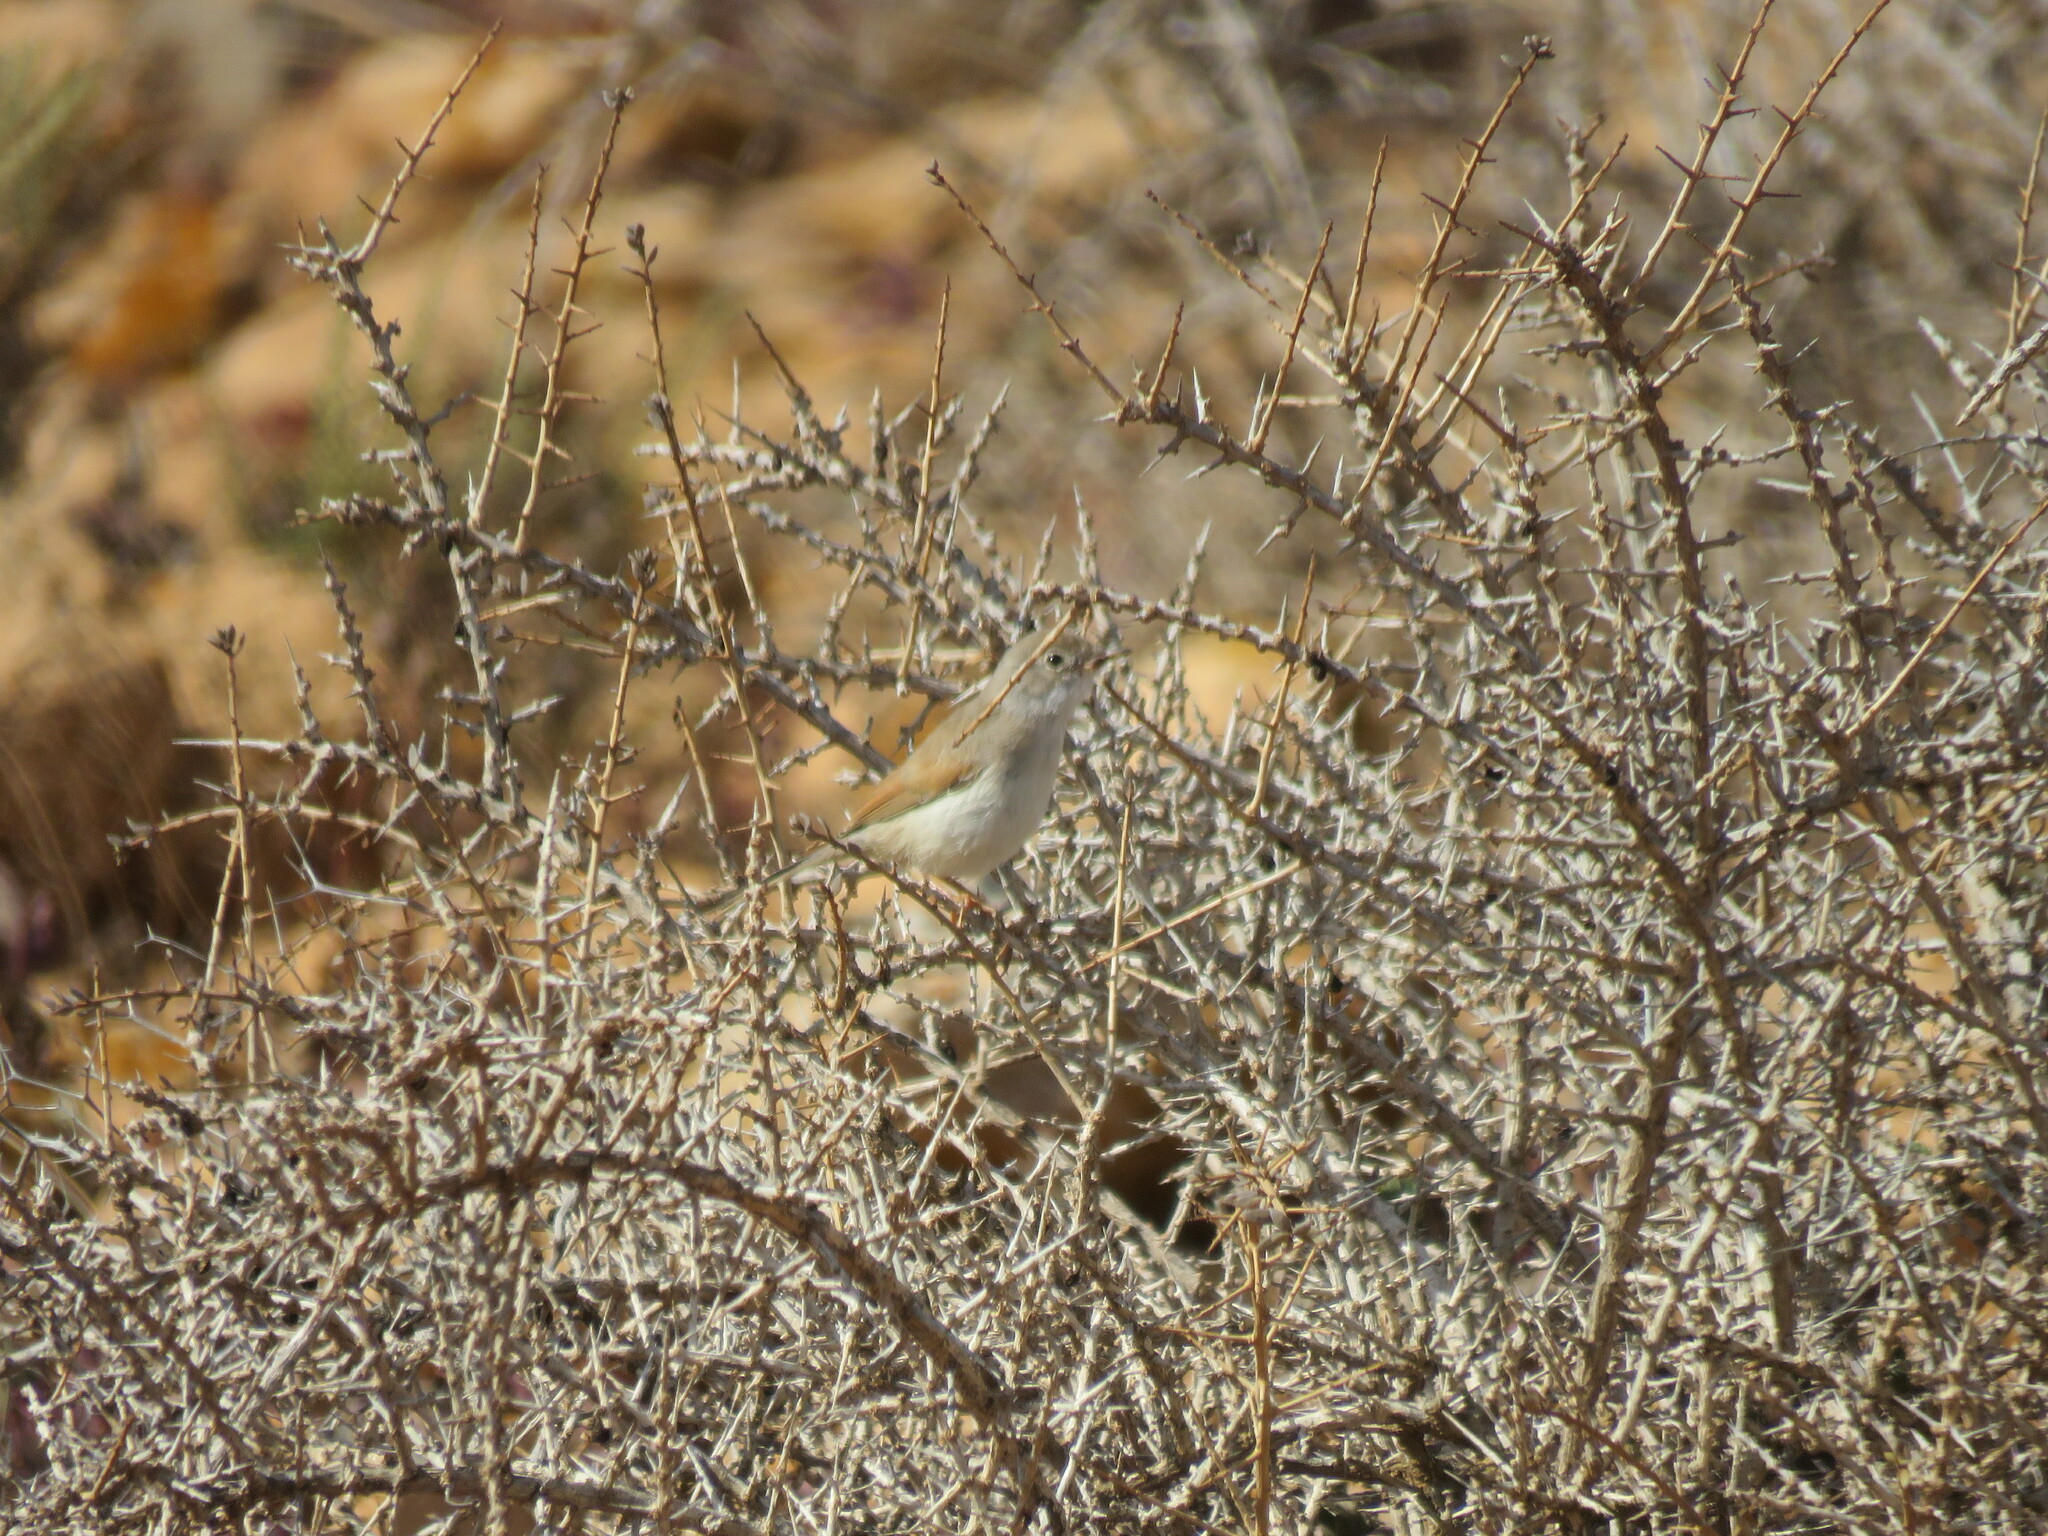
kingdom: Animalia
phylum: Chordata
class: Aves
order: Passeriformes
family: Sylviidae
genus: Sylvia
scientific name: Sylvia conspicillata
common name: Spectacled warbler
